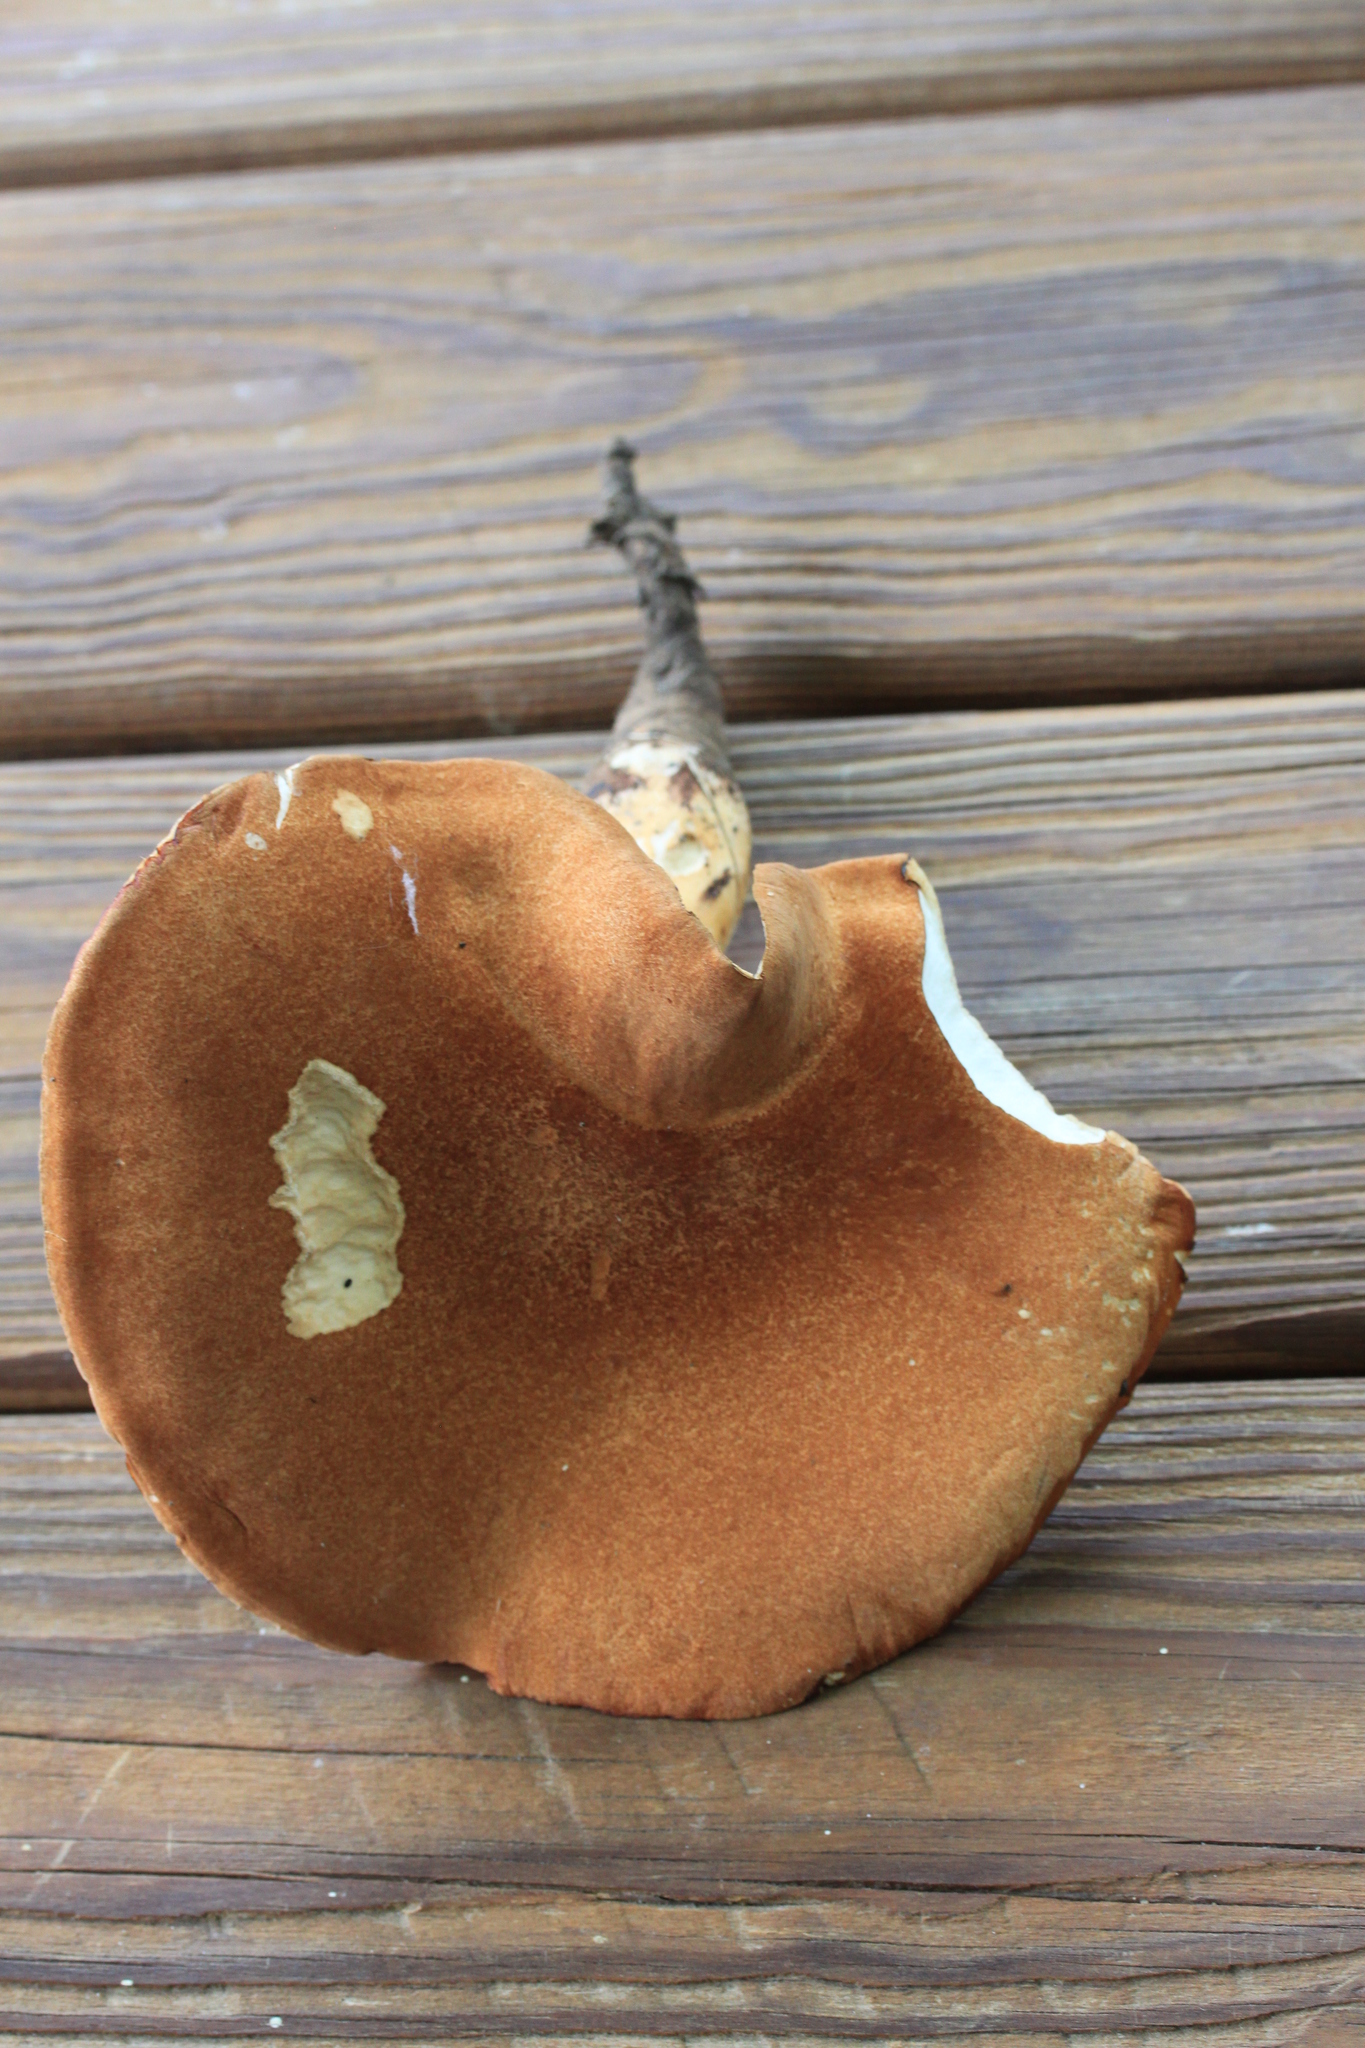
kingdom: Fungi
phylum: Basidiomycota
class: Agaricomycetes
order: Polyporales
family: Polyporaceae
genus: Polyporus
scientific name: Polyporus radicatus
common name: Rooting polypore
